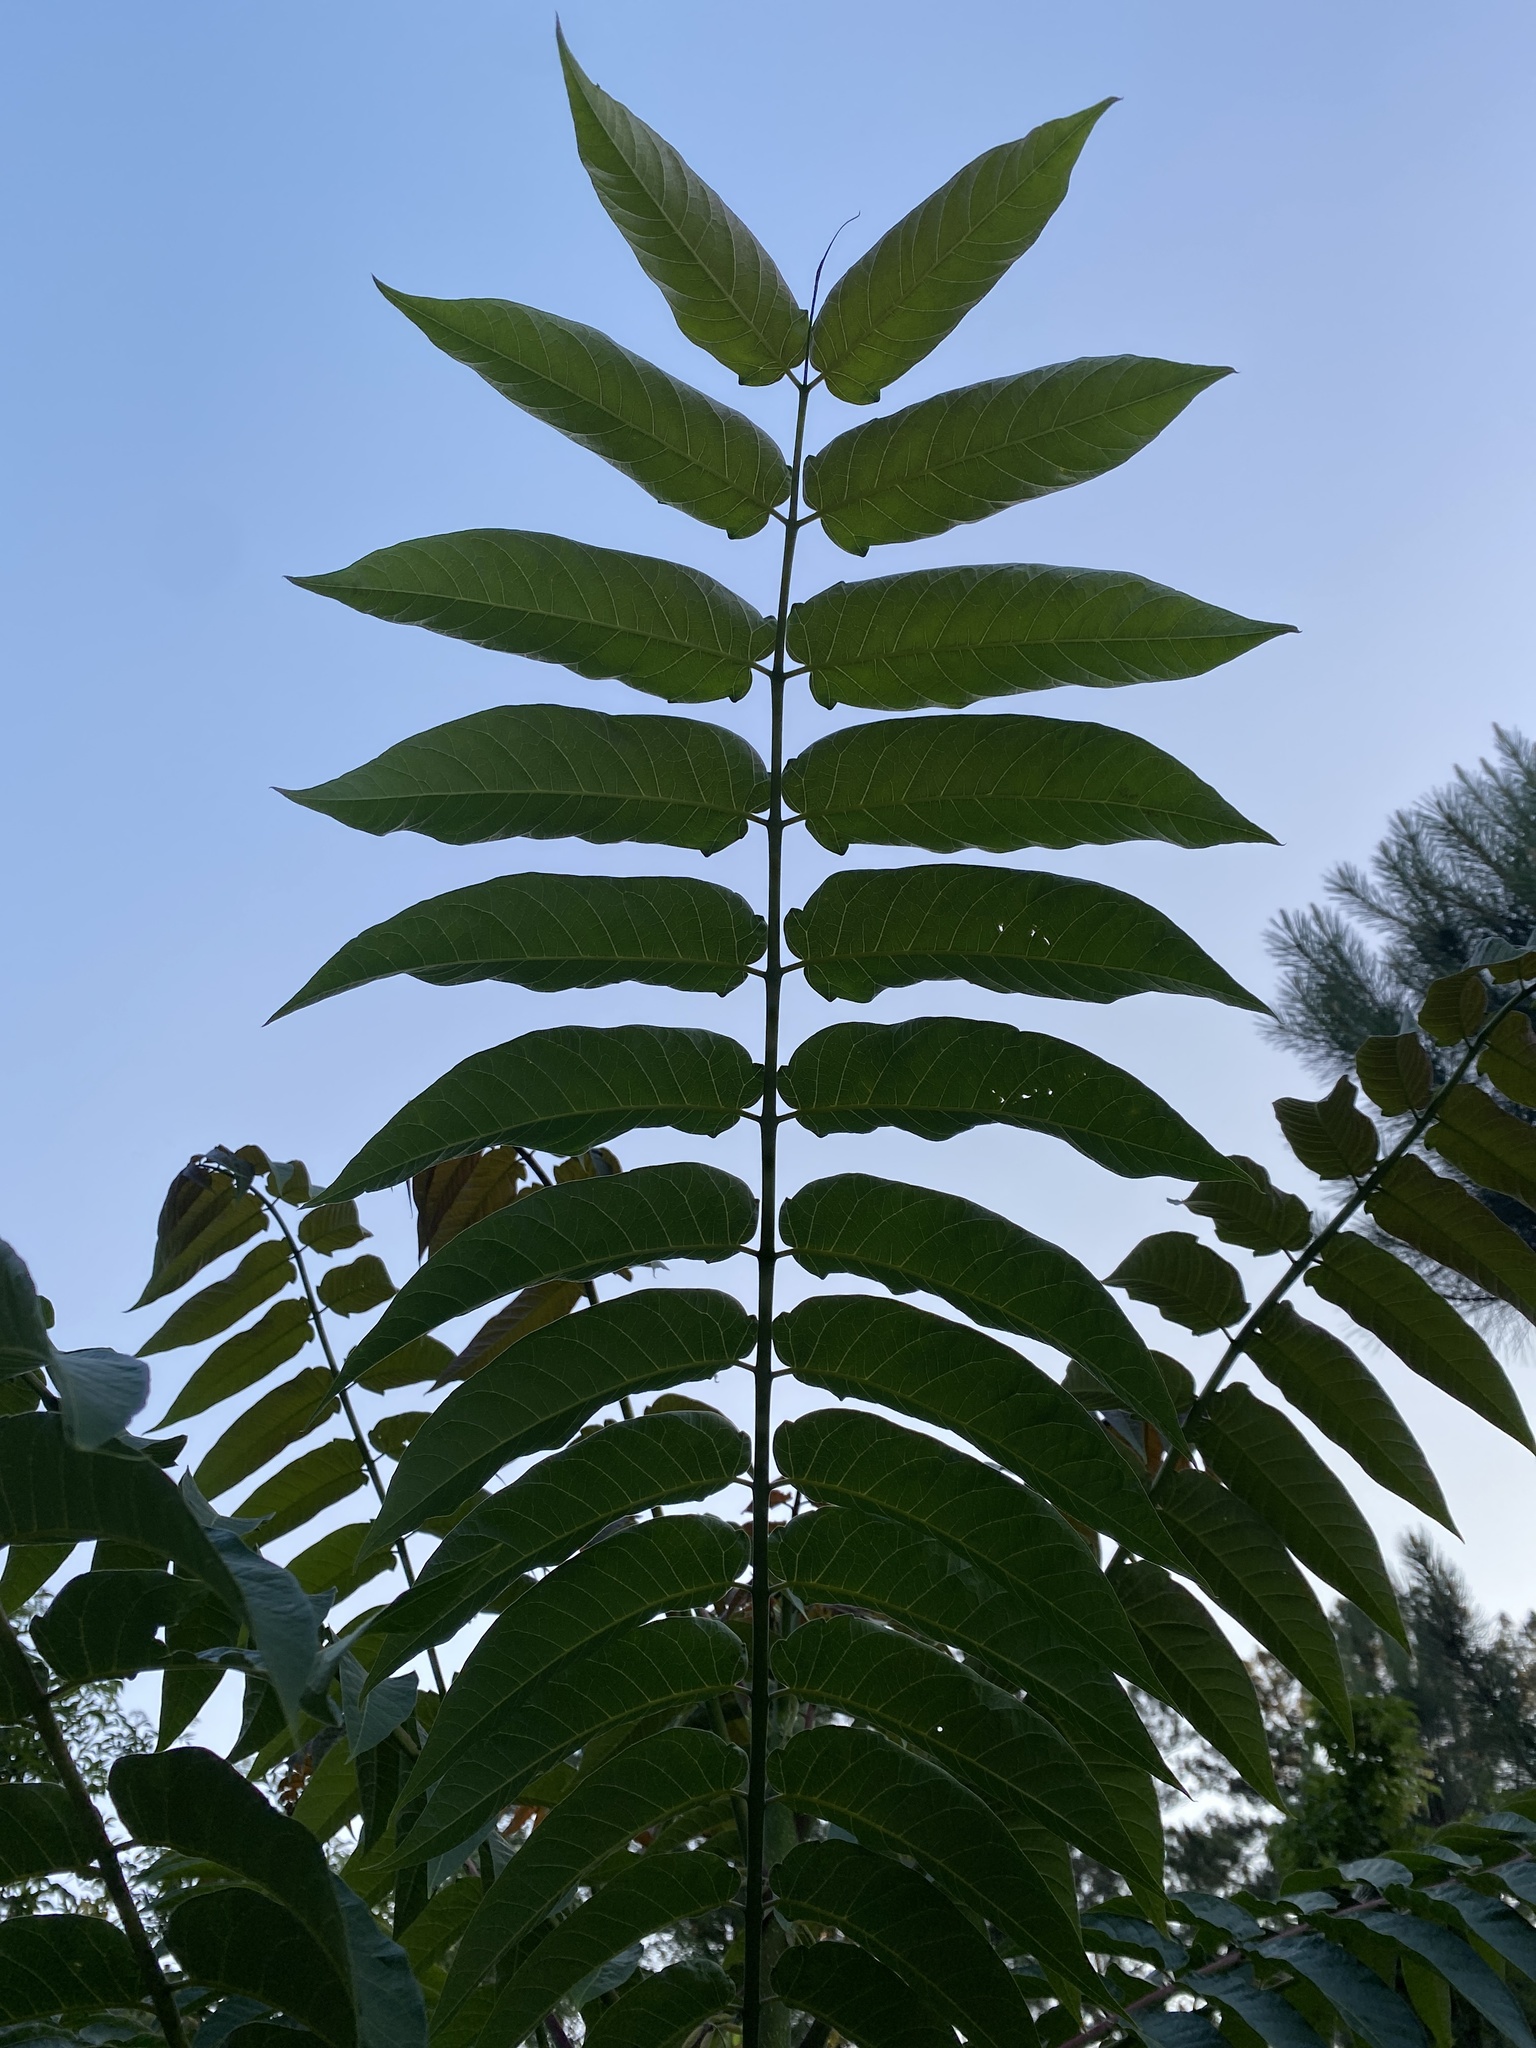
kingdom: Plantae
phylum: Tracheophyta
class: Magnoliopsida
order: Sapindales
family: Simaroubaceae
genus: Ailanthus
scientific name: Ailanthus altissima
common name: Tree-of-heaven
